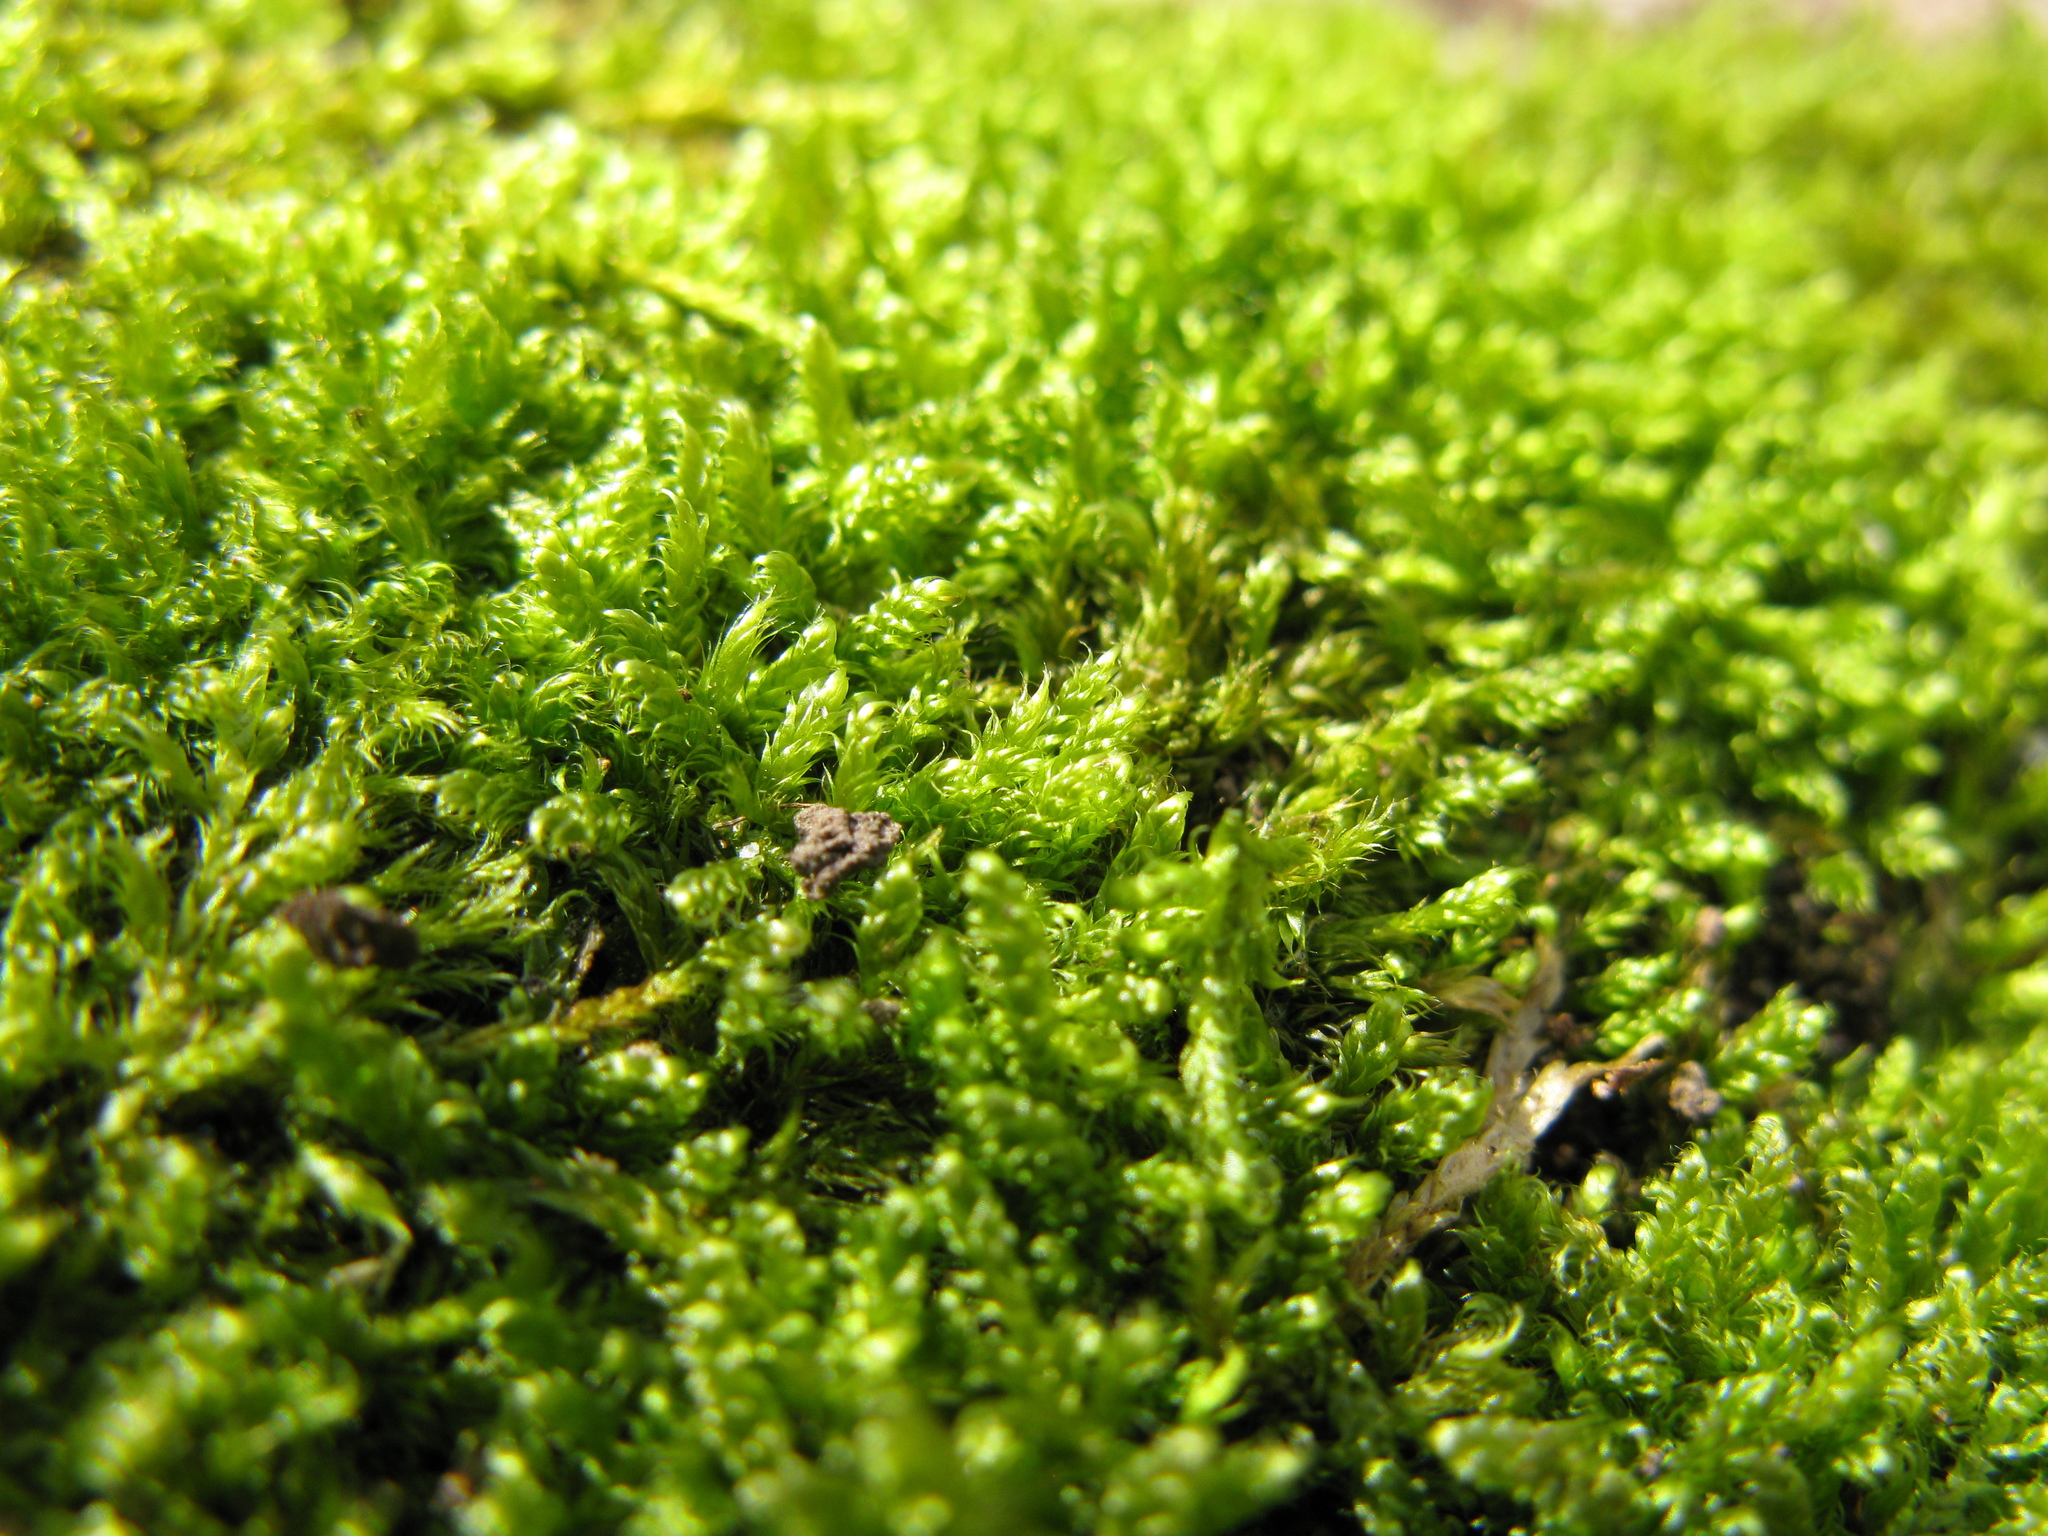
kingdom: Plantae
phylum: Bryophyta
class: Bryopsida
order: Hypnales
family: Hypnaceae
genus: Hypnum
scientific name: Hypnum cupressiforme
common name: Cypress-leaved plait-moss
